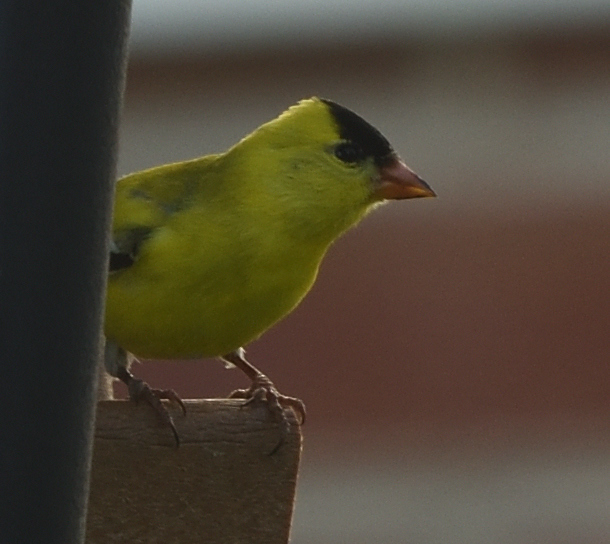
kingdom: Animalia
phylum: Chordata
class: Aves
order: Passeriformes
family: Fringillidae
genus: Spinus
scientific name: Spinus tristis
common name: American goldfinch
